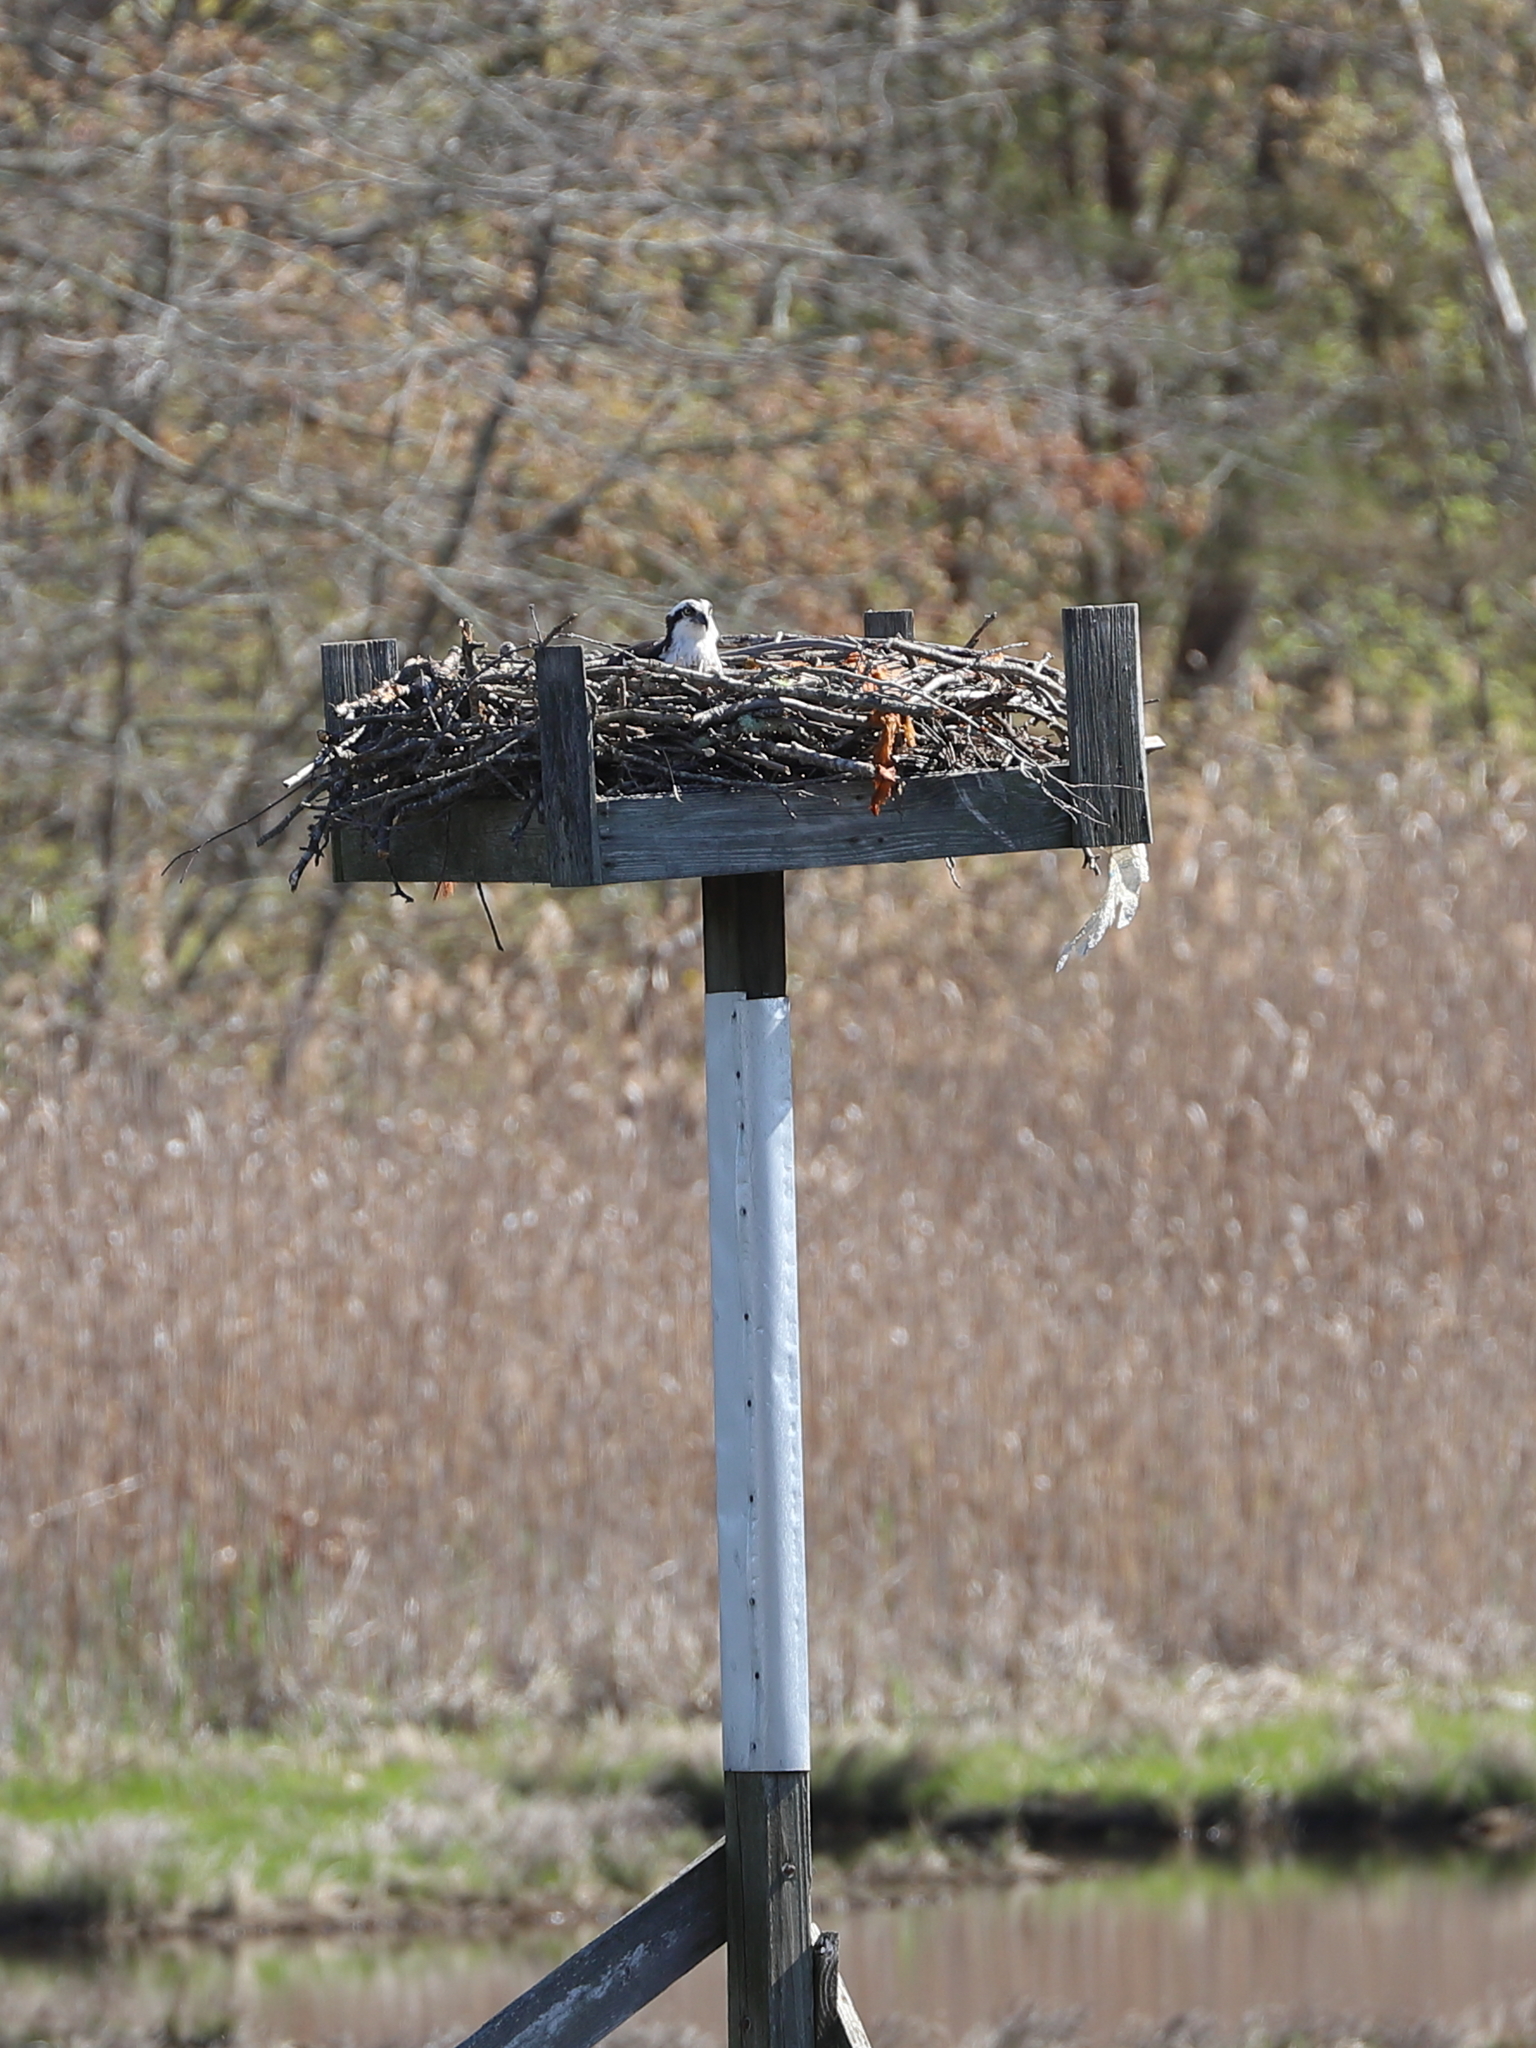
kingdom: Animalia
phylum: Chordata
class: Aves
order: Accipitriformes
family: Pandionidae
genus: Pandion
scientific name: Pandion haliaetus
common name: Osprey
